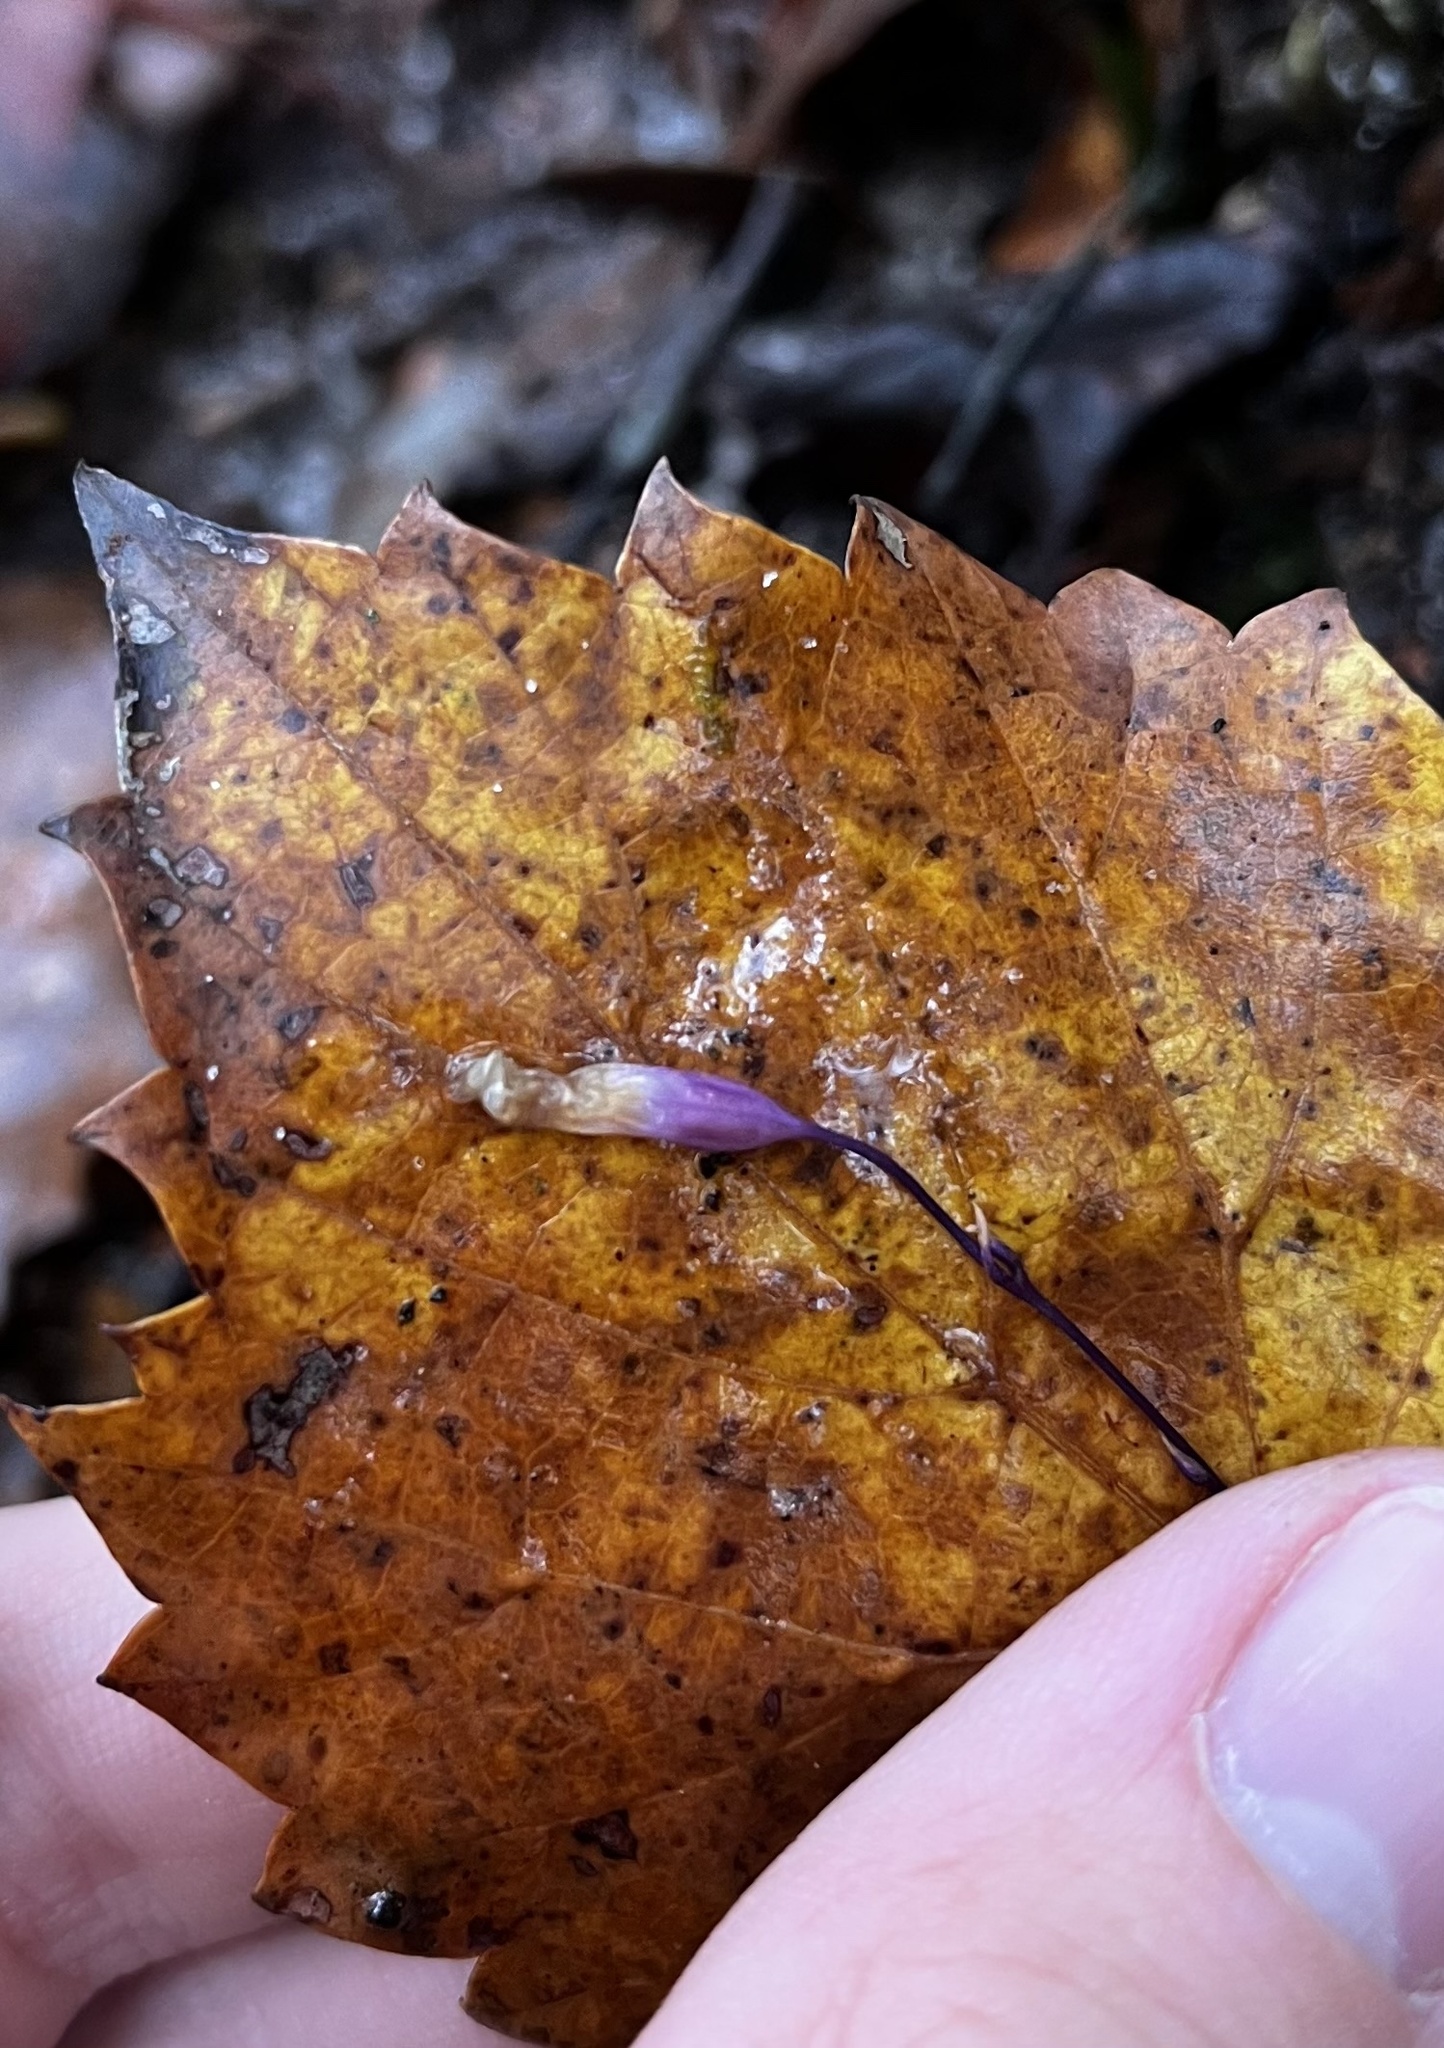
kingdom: Plantae
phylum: Tracheophyta
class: Liliopsida
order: Dioscoreales
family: Burmanniaceae
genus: Apteria
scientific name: Apteria aphylla
